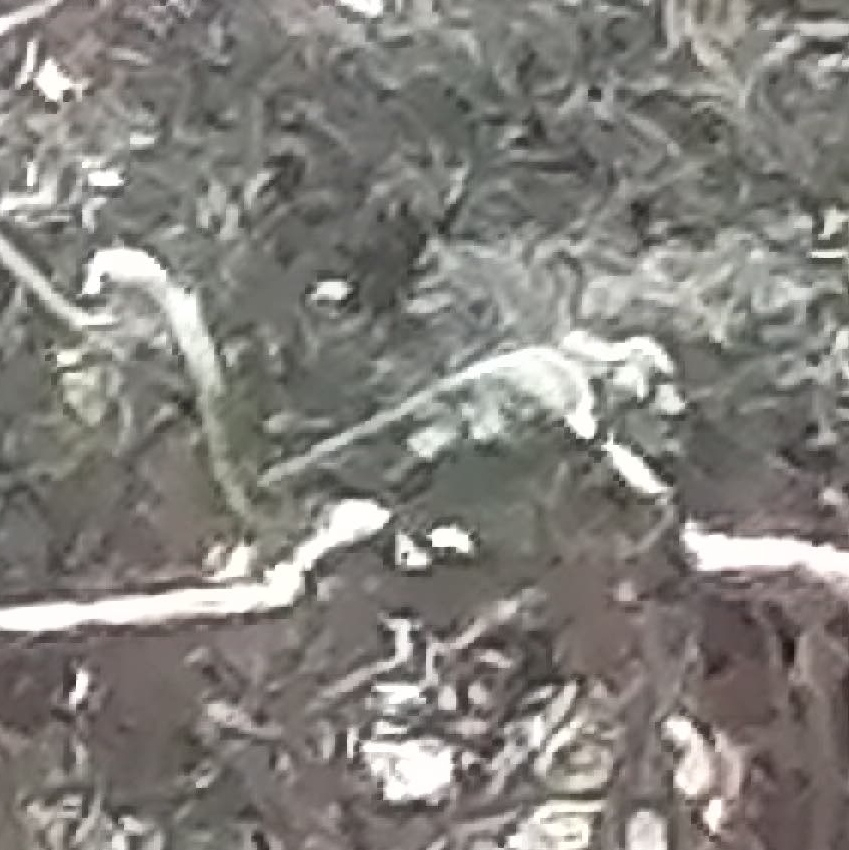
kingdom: Animalia
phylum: Chordata
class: Squamata
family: Chamaeleonidae
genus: Chamaeleo
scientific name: Chamaeleo chamaeleon
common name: Mediterranean chameleon
